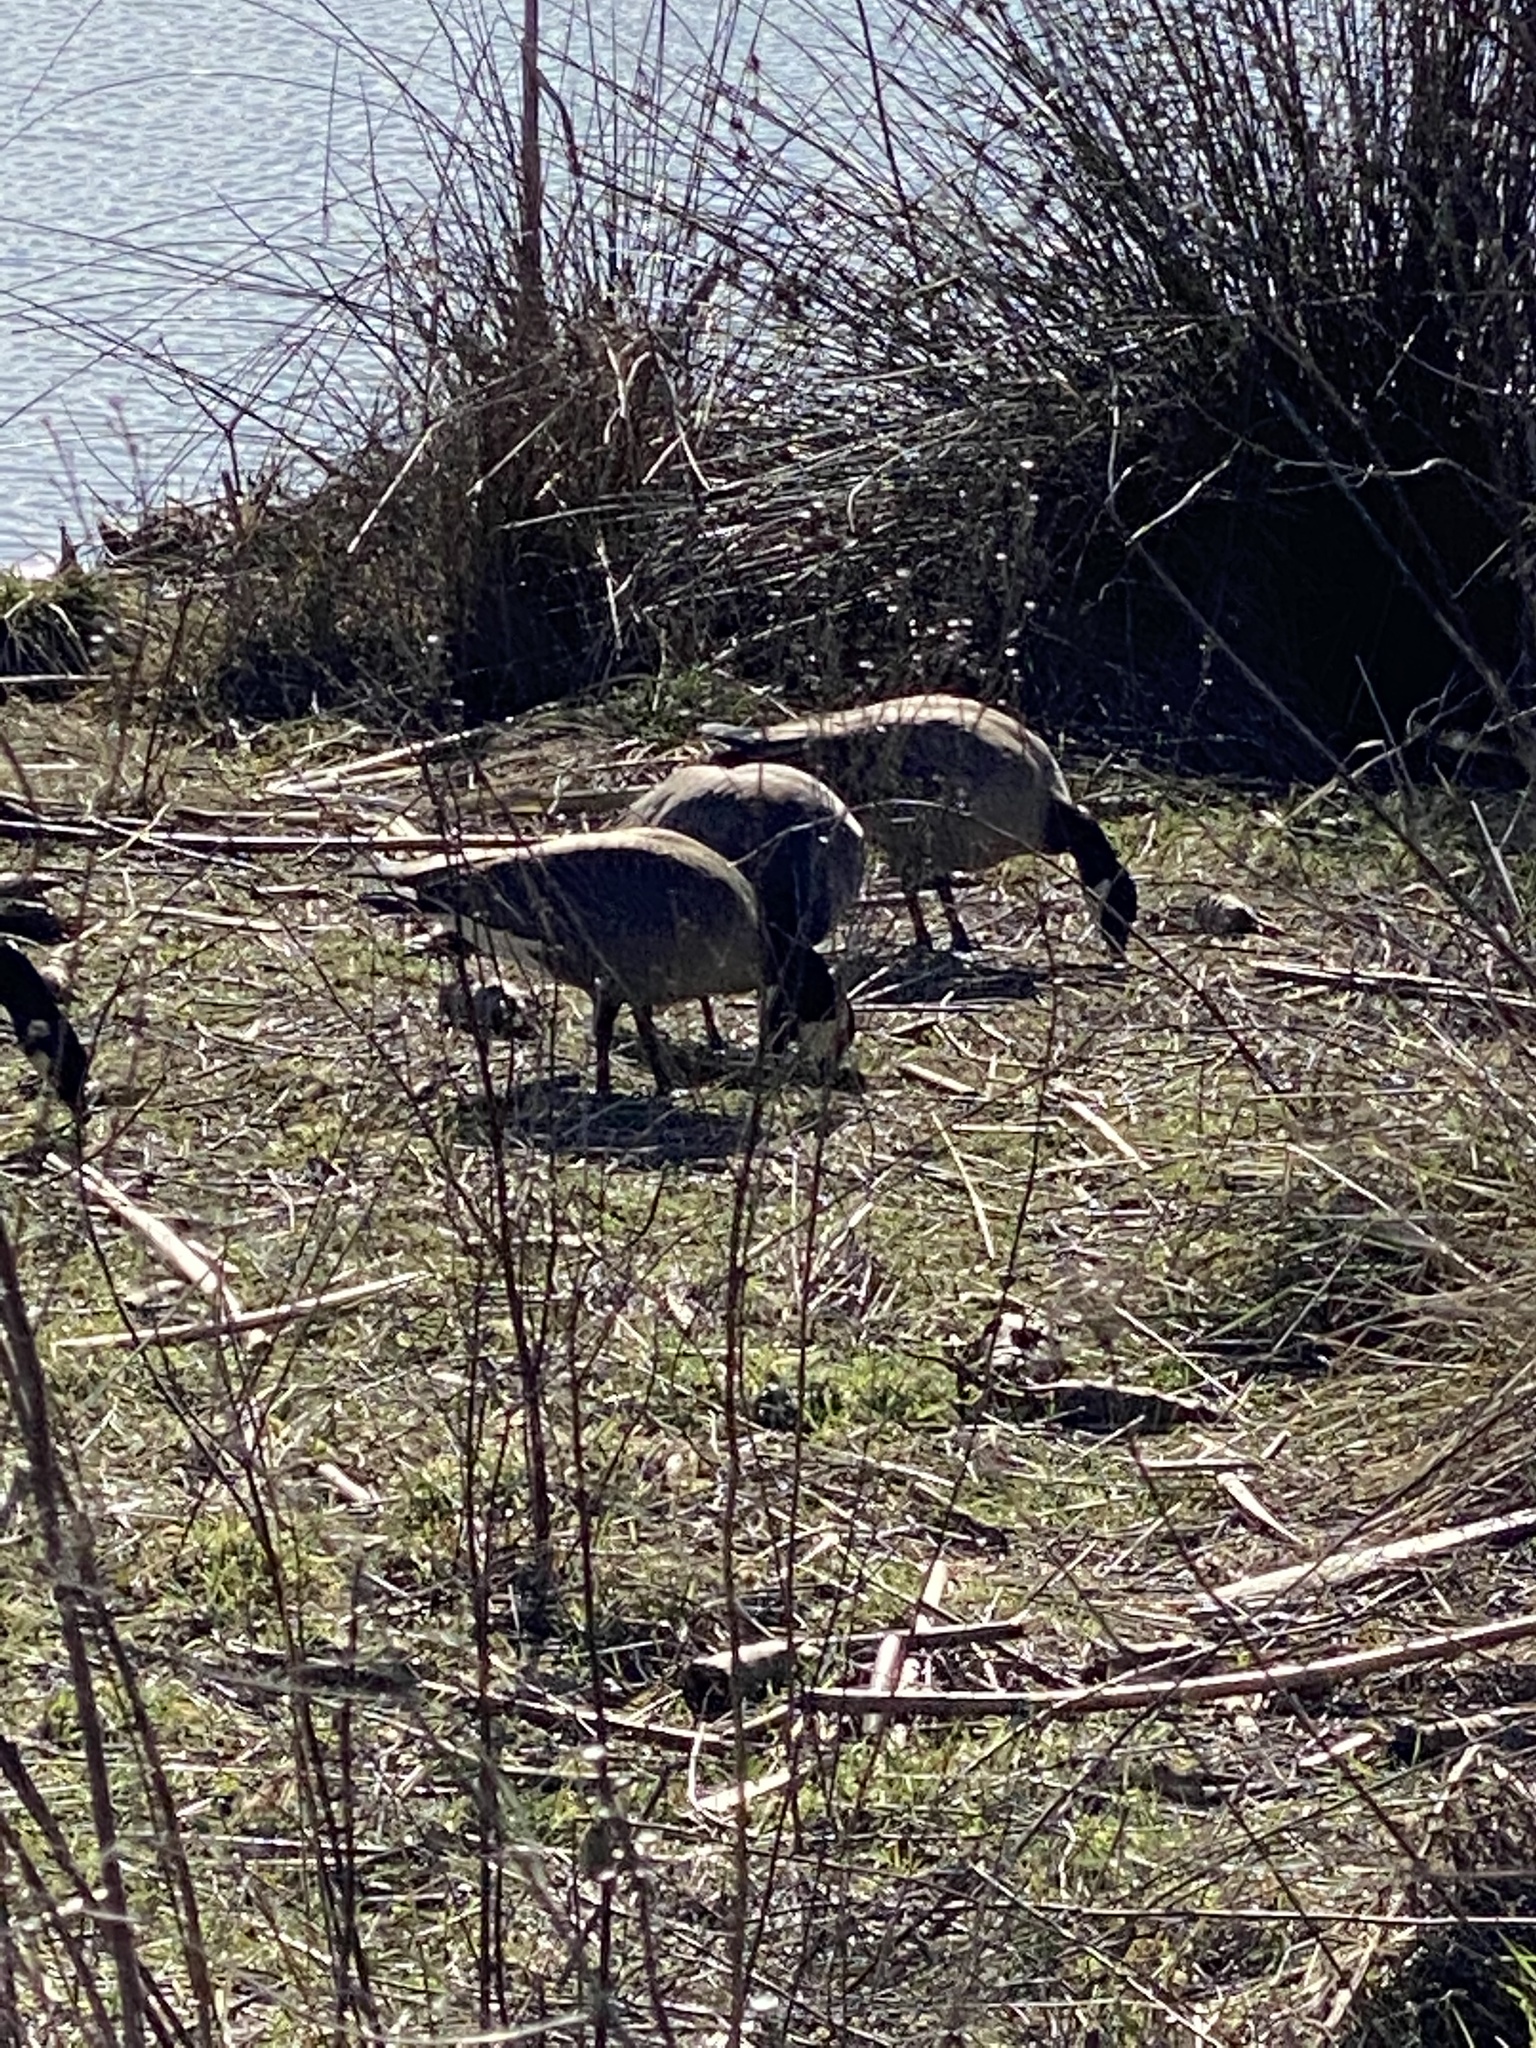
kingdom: Animalia
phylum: Chordata
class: Aves
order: Anseriformes
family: Anatidae
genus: Branta
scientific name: Branta hutchinsii
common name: Cackling goose
